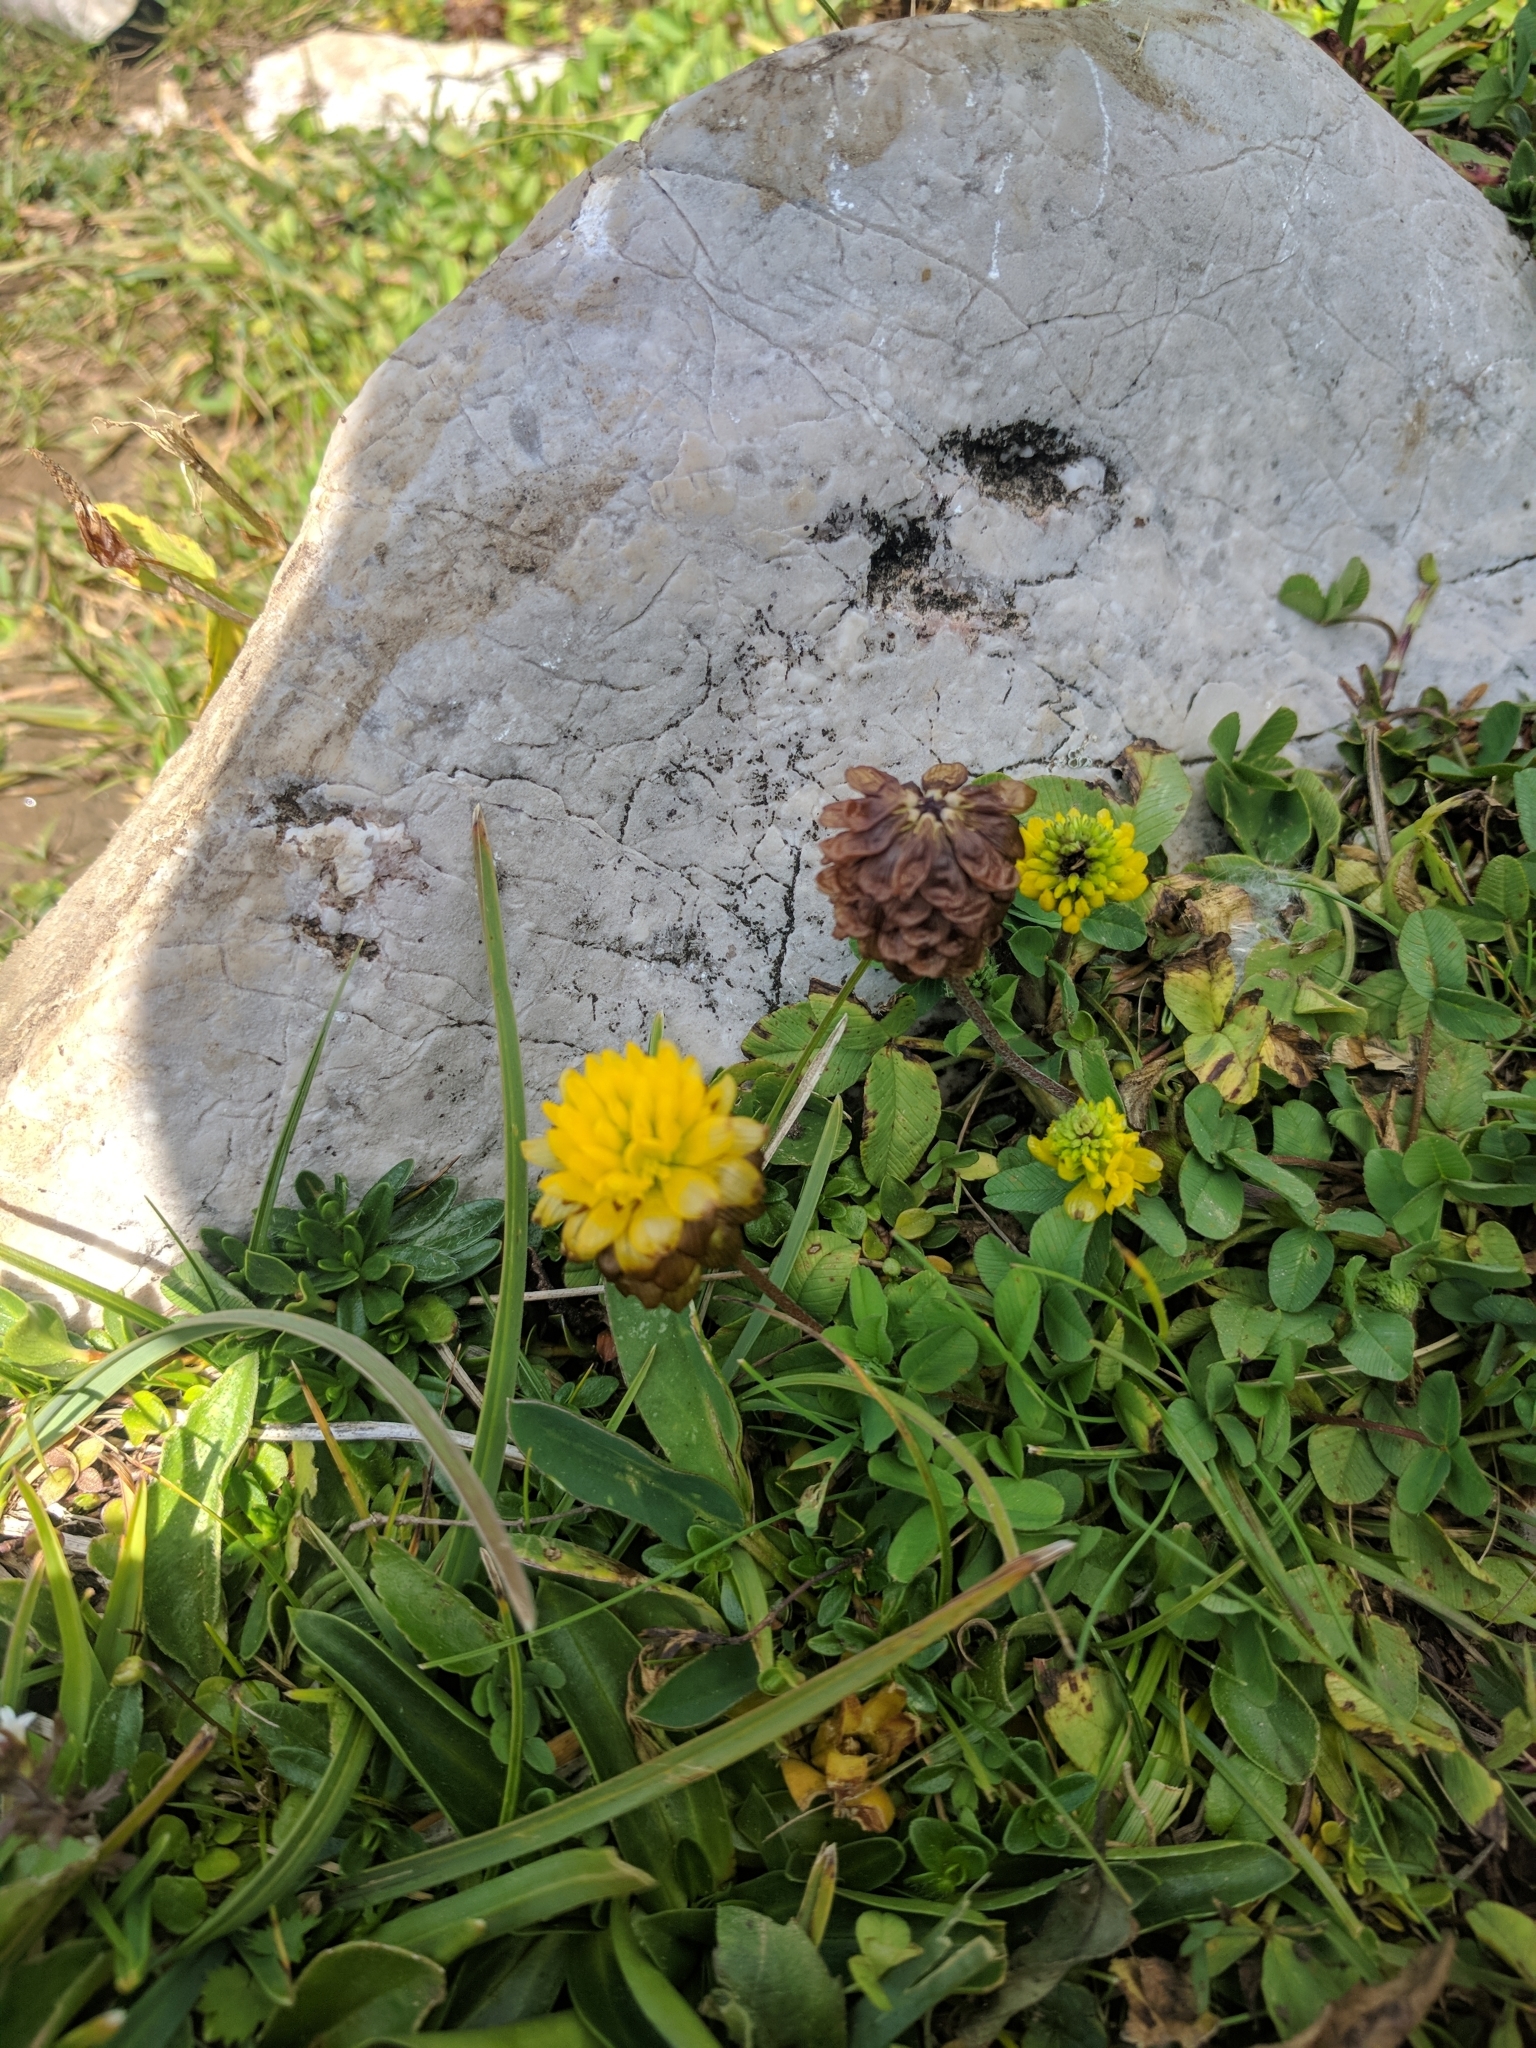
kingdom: Plantae
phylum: Tracheophyta
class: Magnoliopsida
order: Fabales
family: Fabaceae
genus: Trifolium
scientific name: Trifolium badium
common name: Brown clover
